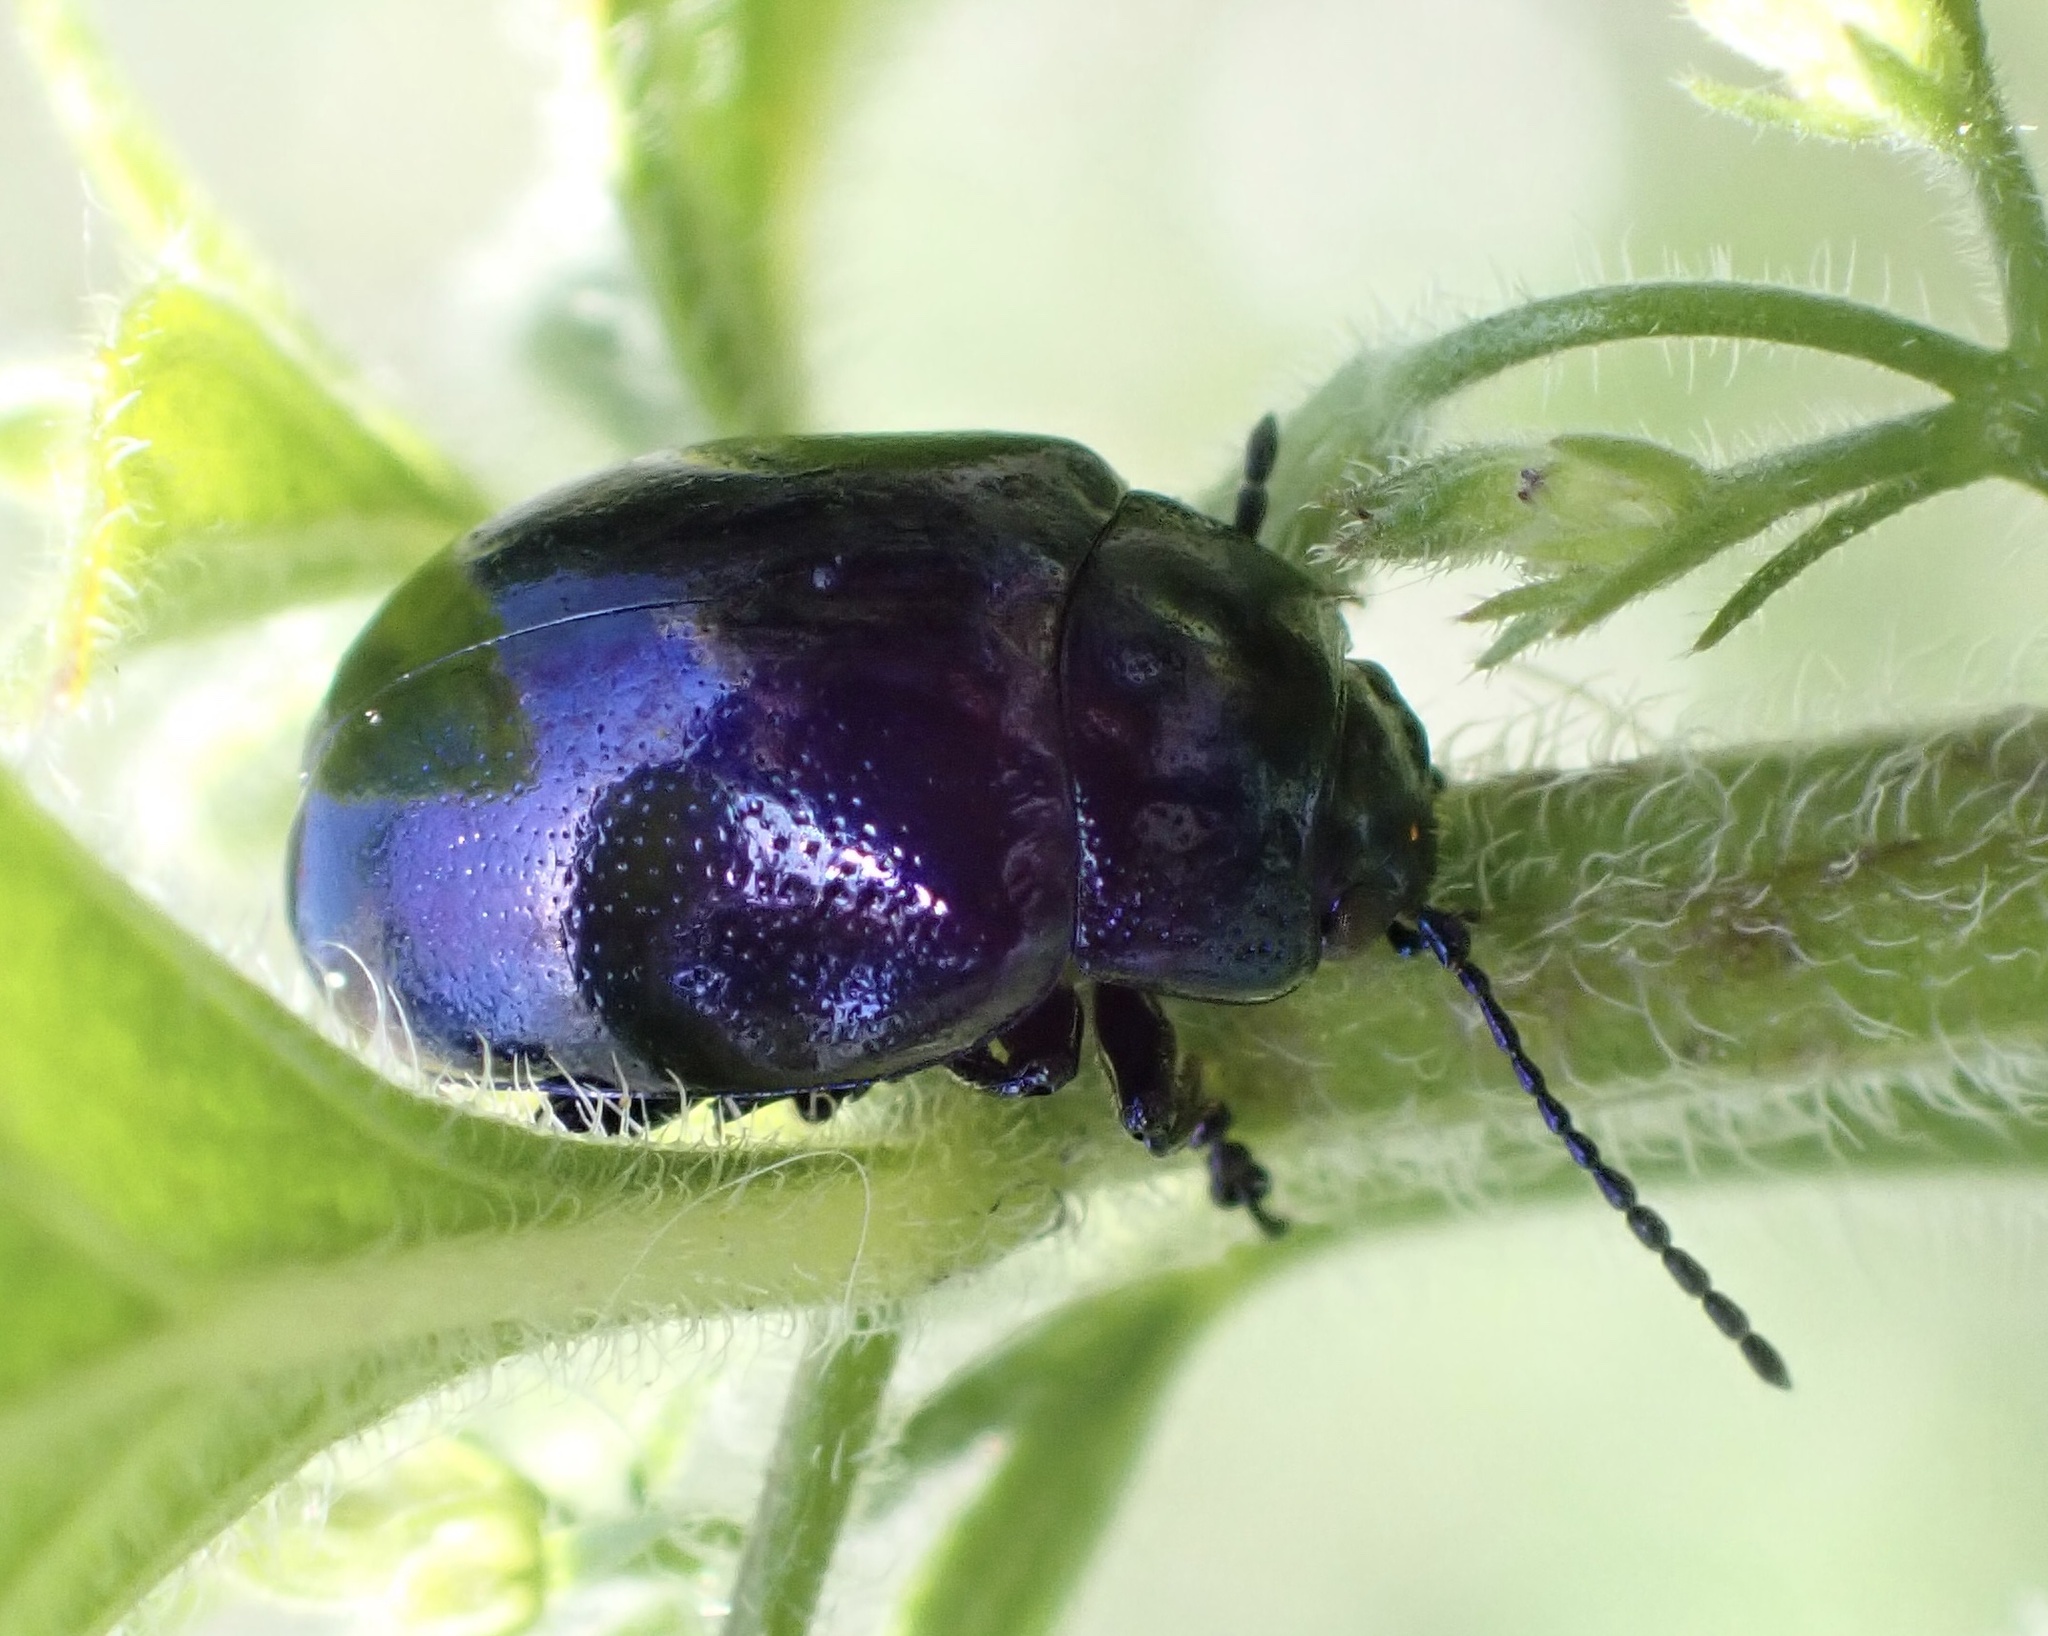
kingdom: Animalia
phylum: Arthropoda
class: Insecta
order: Coleoptera
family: Chrysomelidae
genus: Chrysolina
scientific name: Chrysolina coerulans
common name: Blue mint beetle
